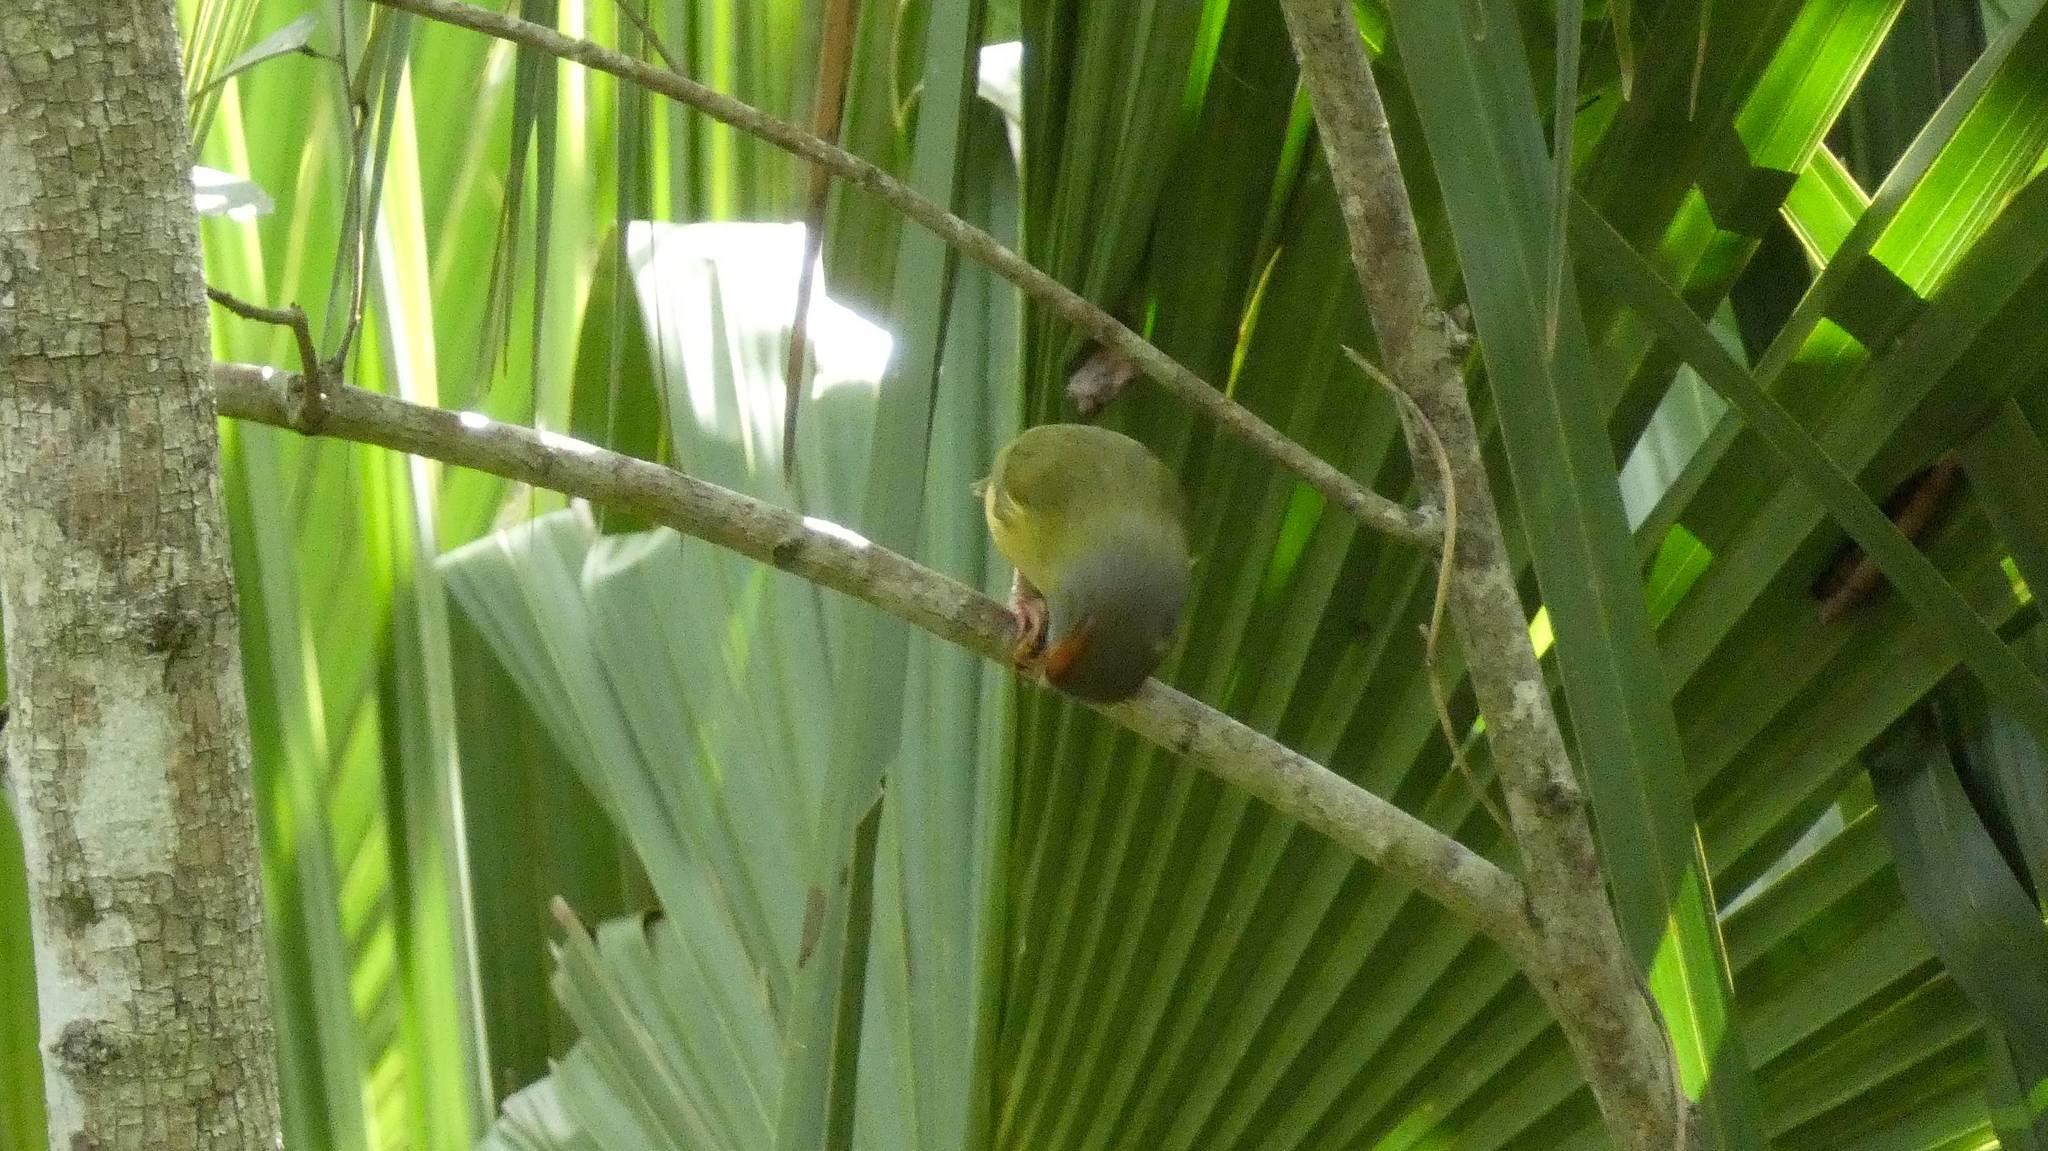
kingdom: Animalia
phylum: Chordata
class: Aves
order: Passeriformes
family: Vireonidae
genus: Cyclarhis
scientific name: Cyclarhis gujanensis
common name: Rufous-browed peppershrike
